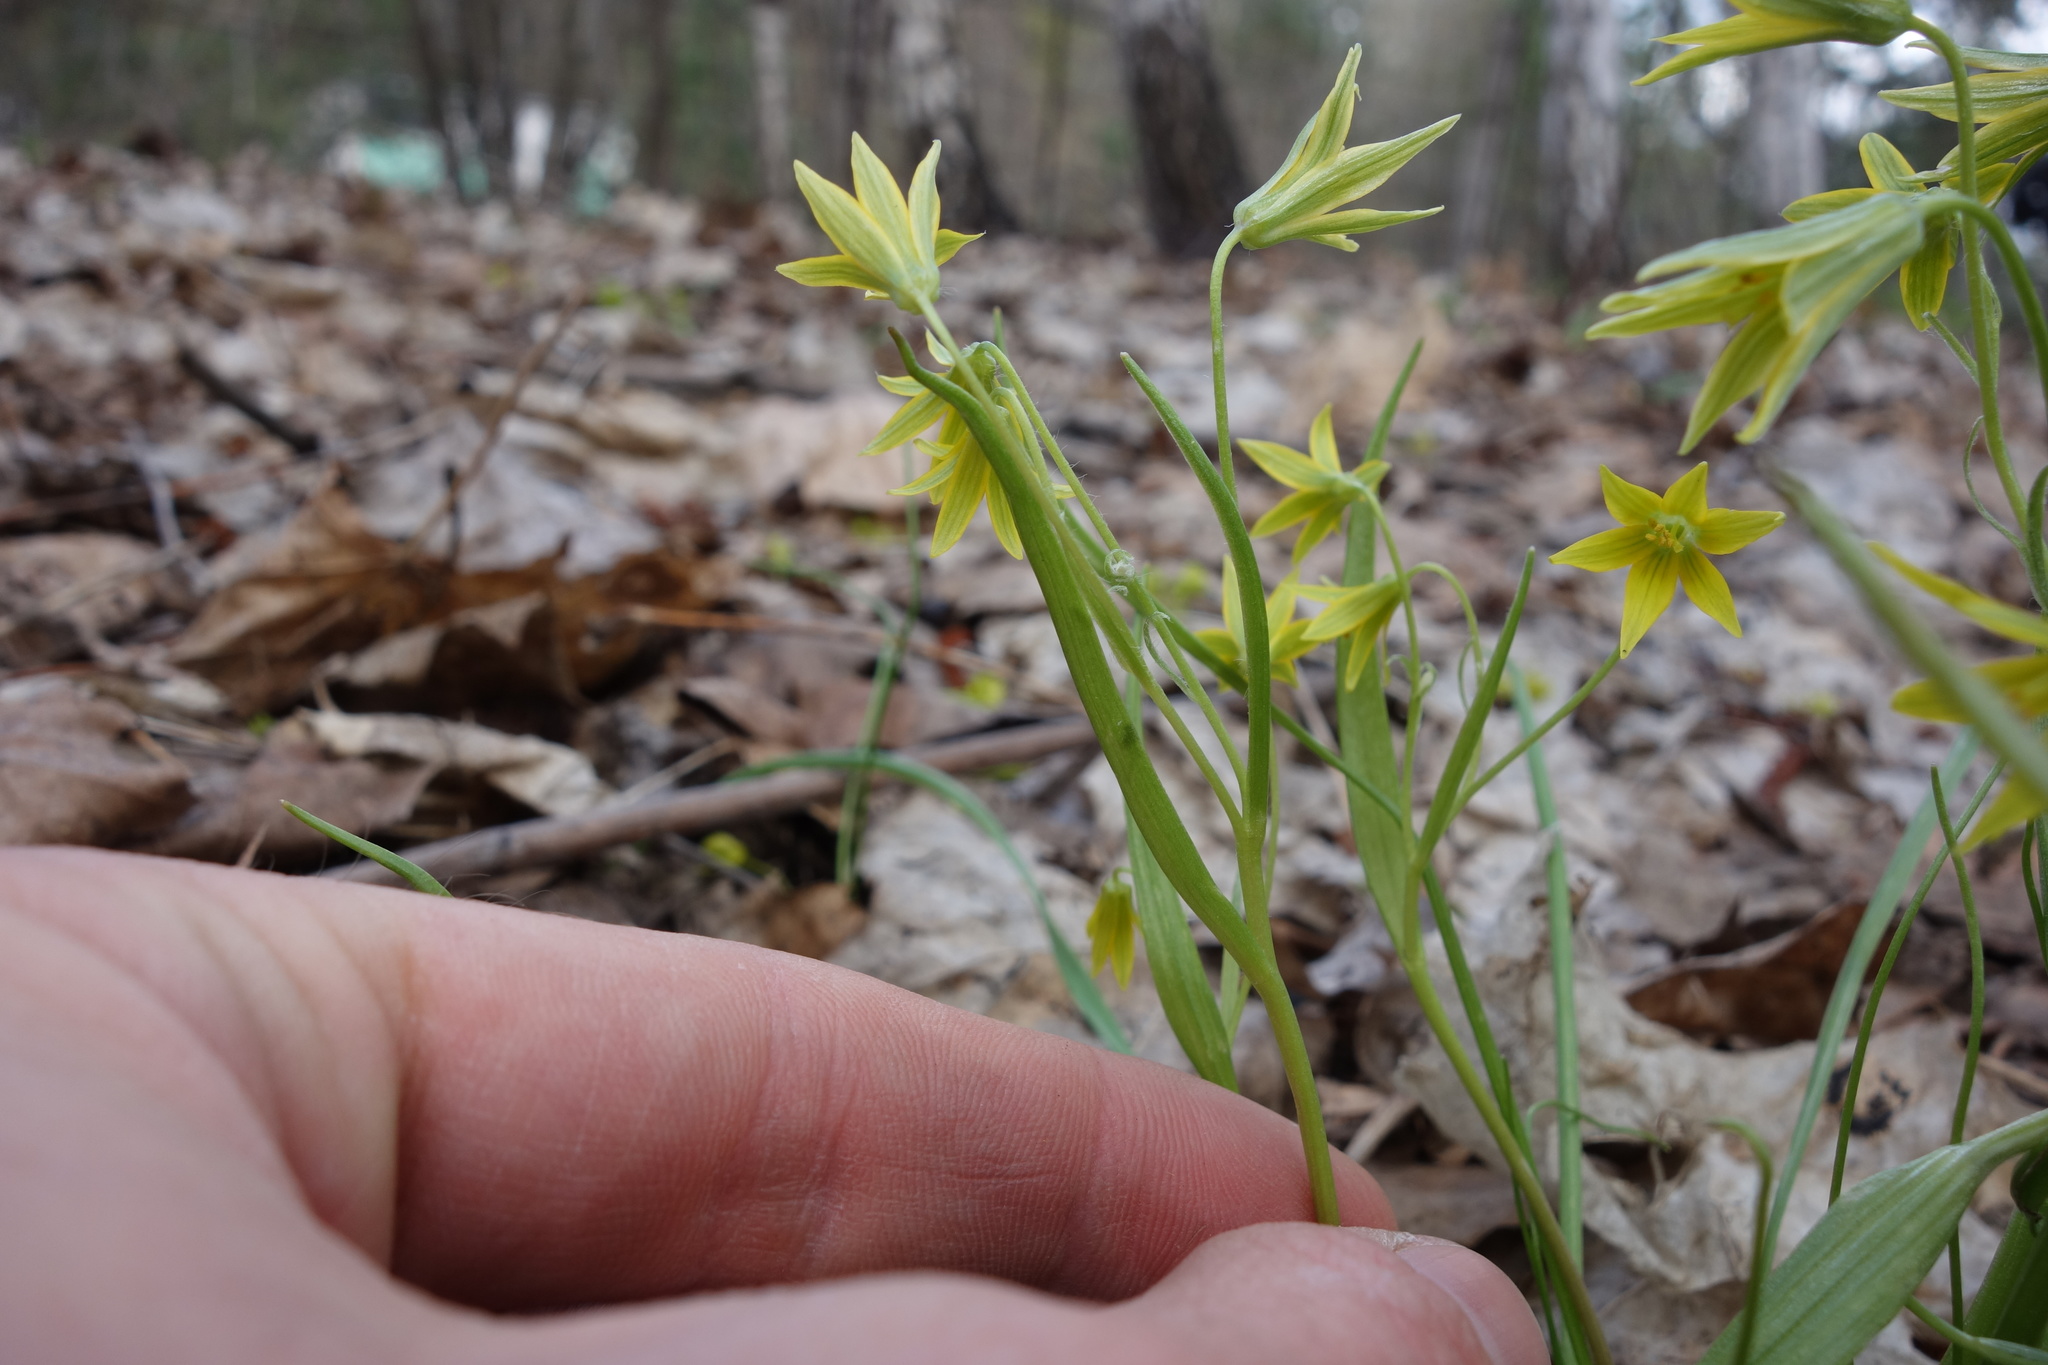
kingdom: Plantae
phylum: Tracheophyta
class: Liliopsida
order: Liliales
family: Liliaceae
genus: Gagea
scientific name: Gagea minima
